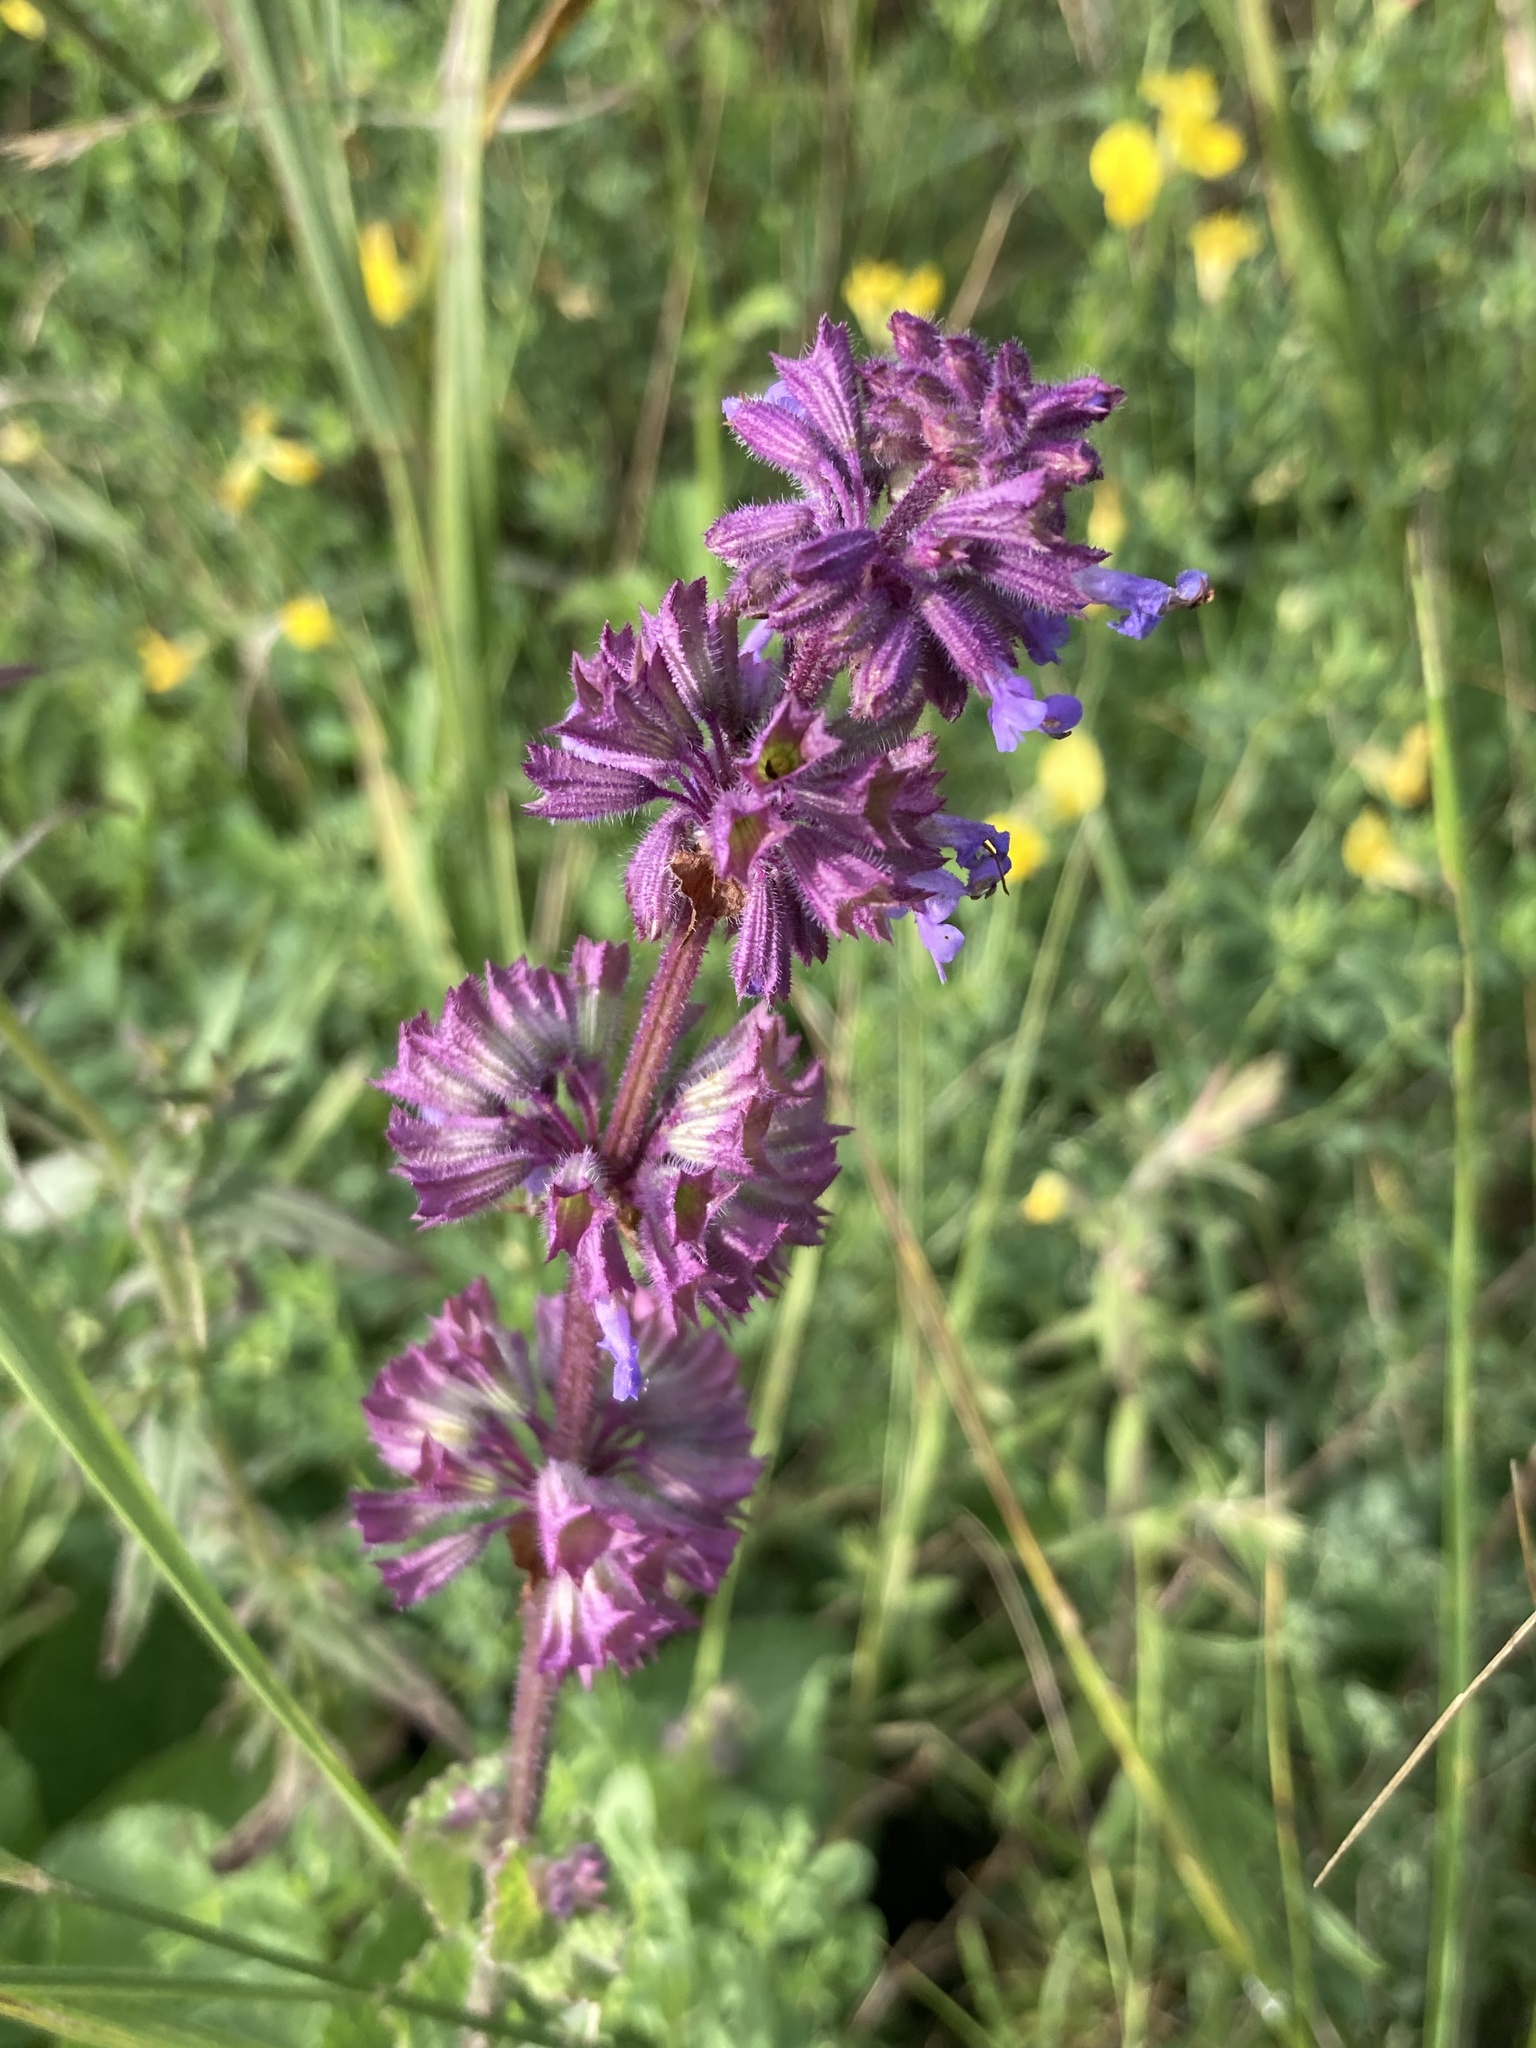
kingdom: Plantae
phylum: Tracheophyta
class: Magnoliopsida
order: Lamiales
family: Lamiaceae
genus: Salvia
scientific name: Salvia verticillata
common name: Whorled clary
